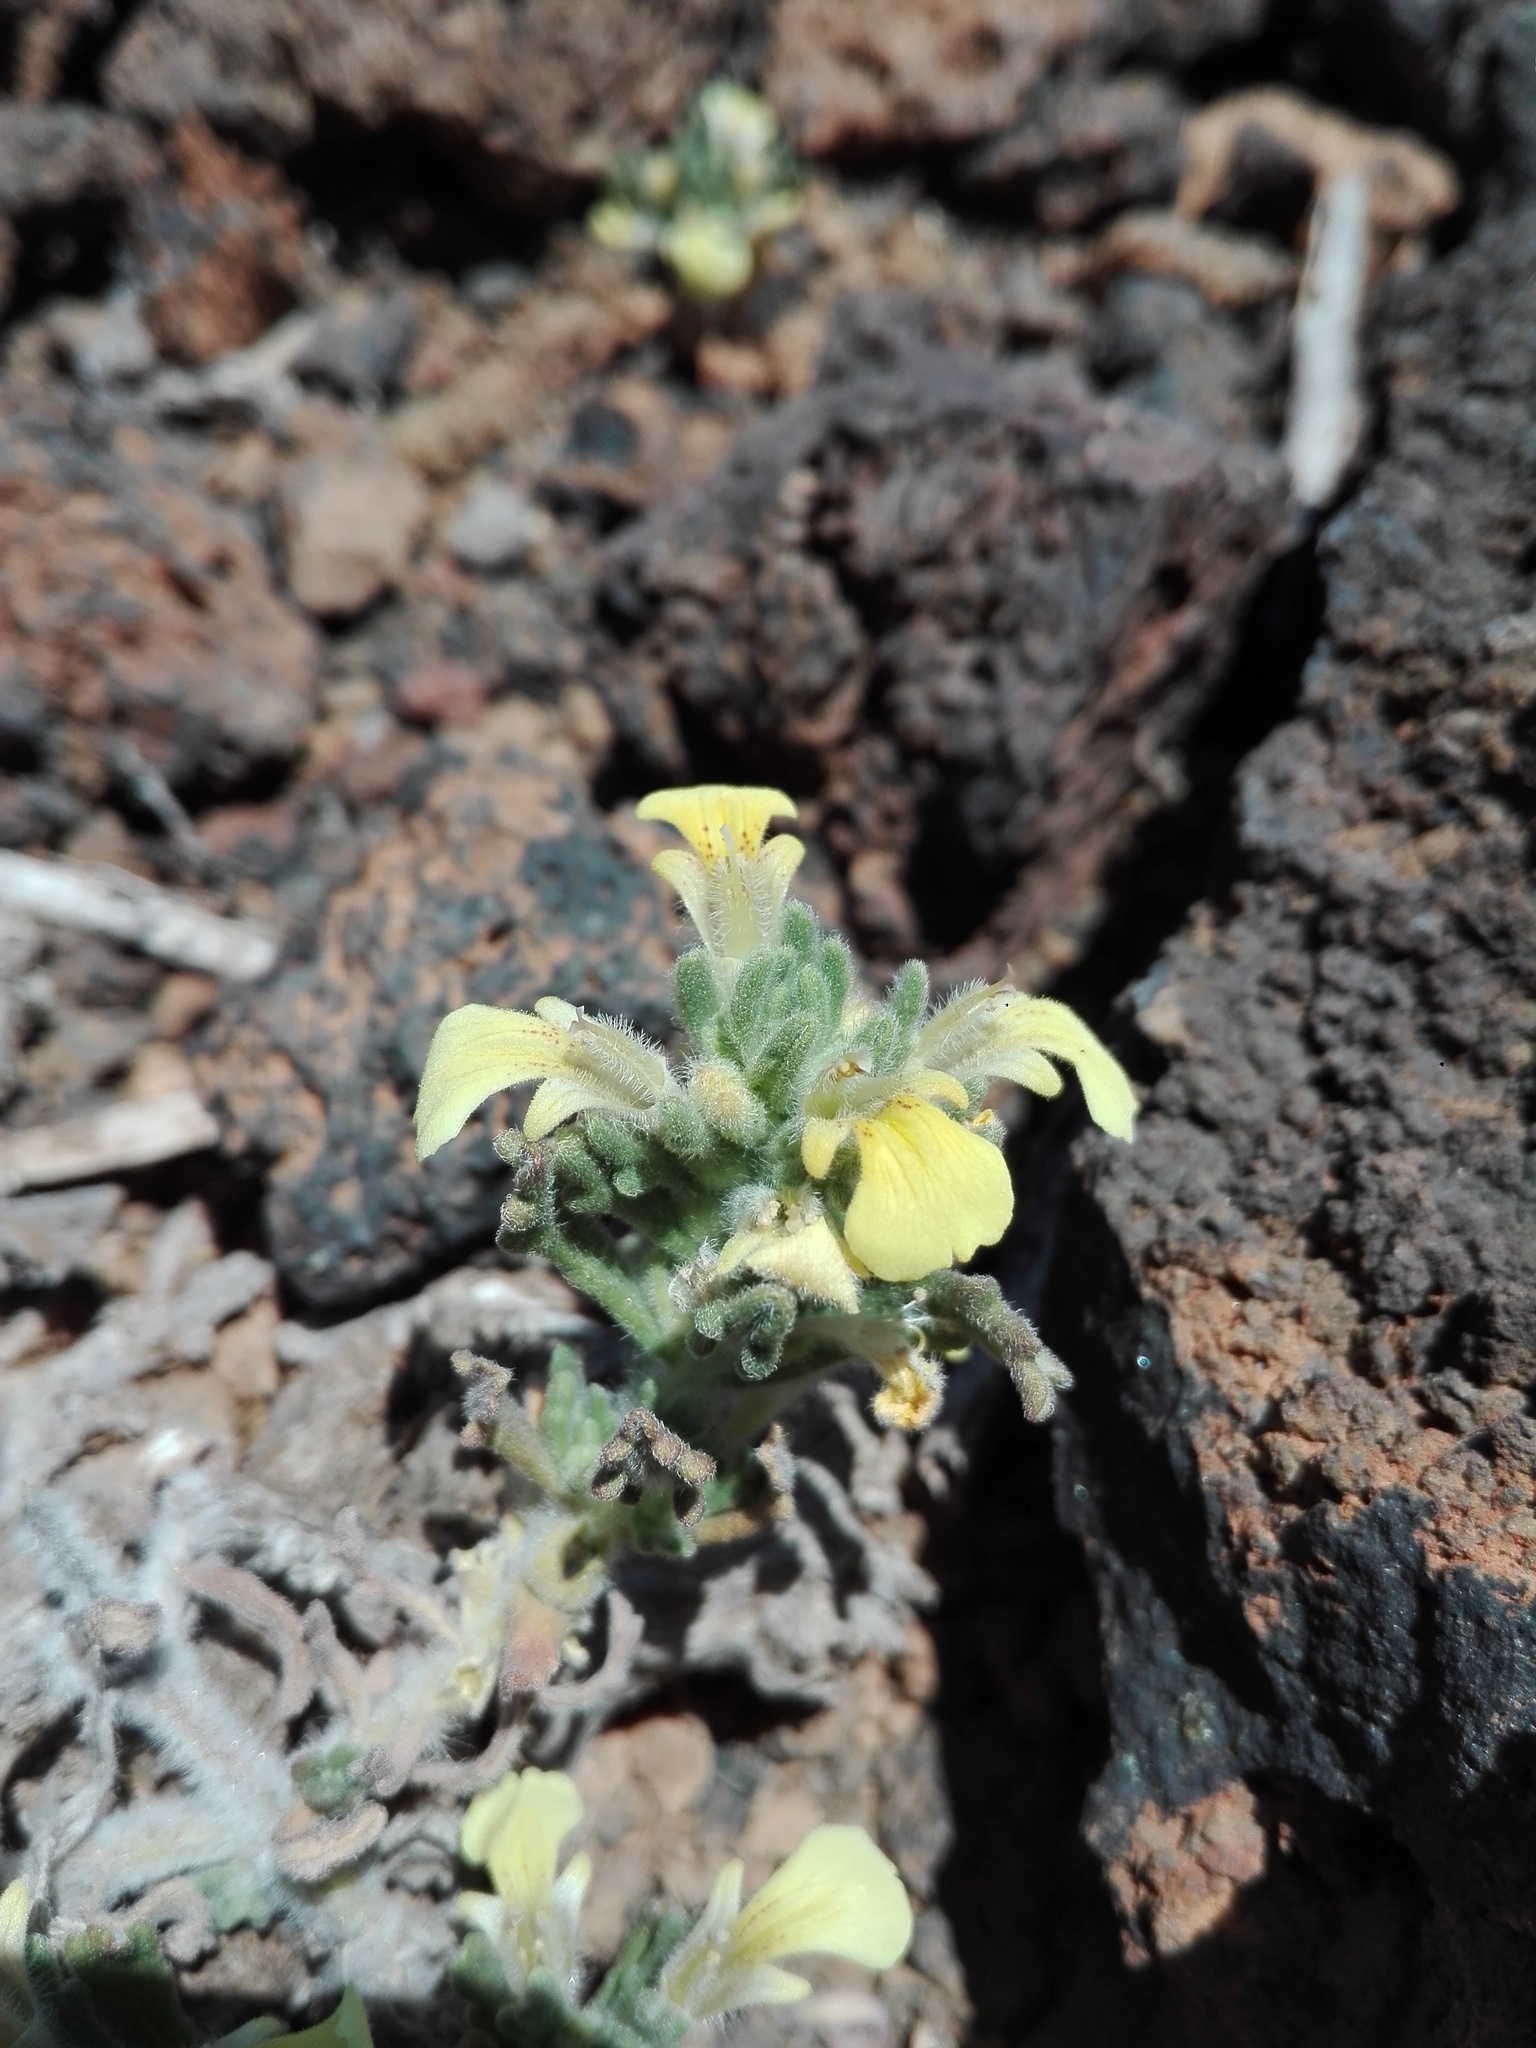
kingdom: Plantae
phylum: Tracheophyta
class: Magnoliopsida
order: Lamiales
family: Lamiaceae
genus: Ajuga
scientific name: Ajuga iva
